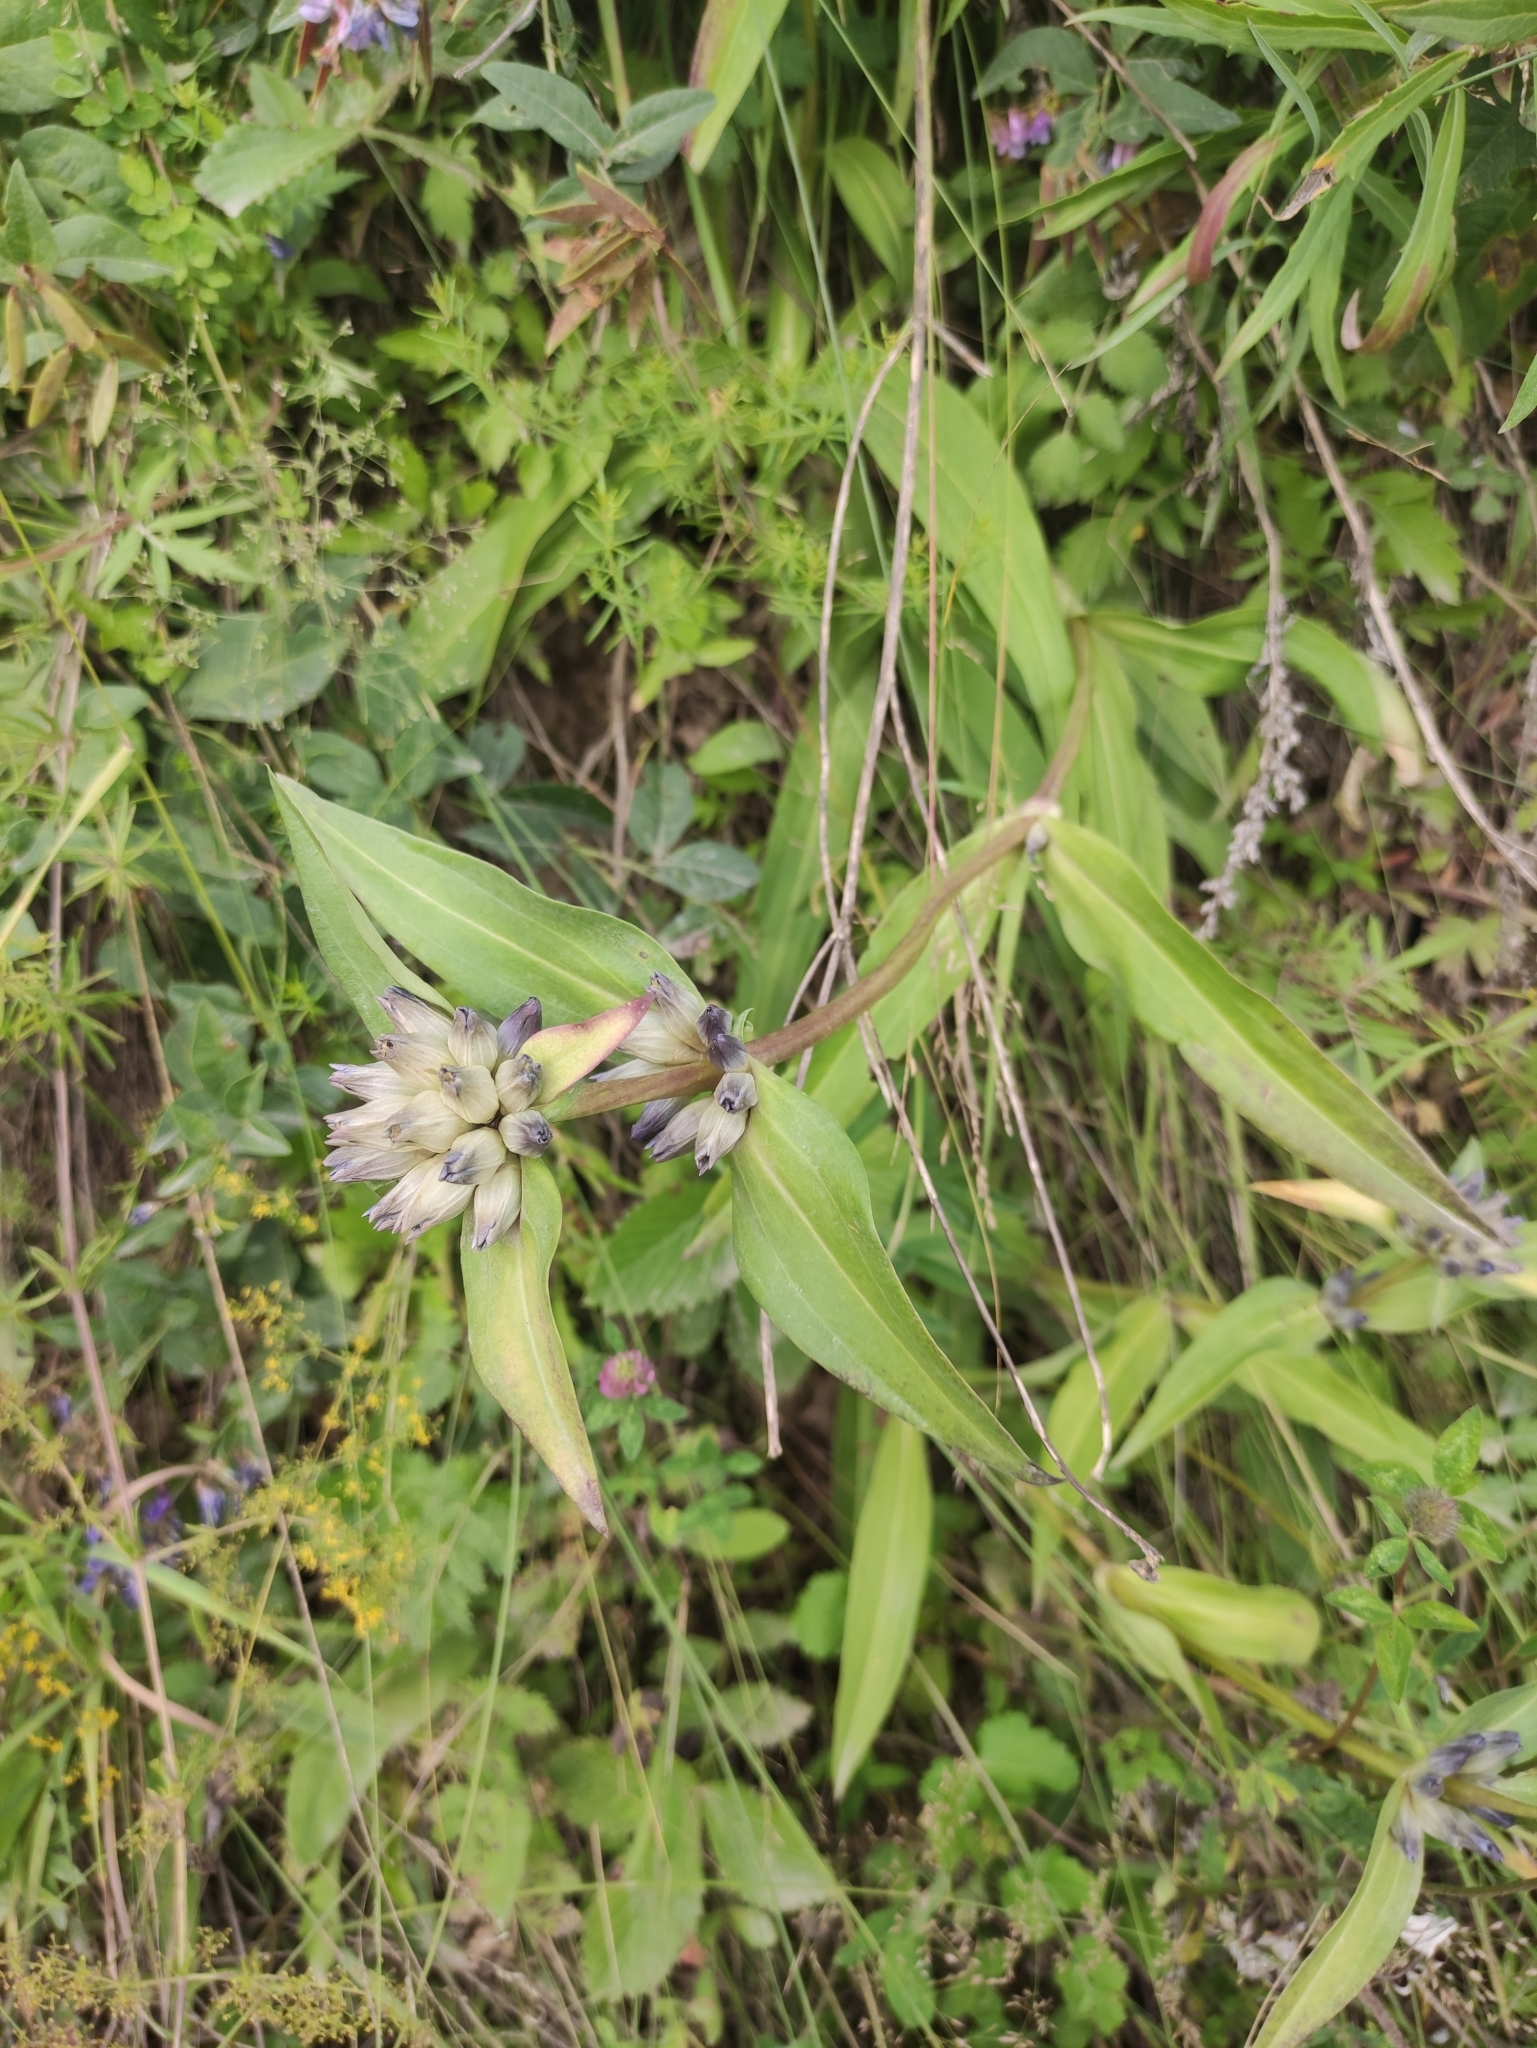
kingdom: Plantae
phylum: Tracheophyta
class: Magnoliopsida
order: Gentianales
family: Gentianaceae
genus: Gentiana
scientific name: Gentiana macrophylla
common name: Large-leaf gentian
